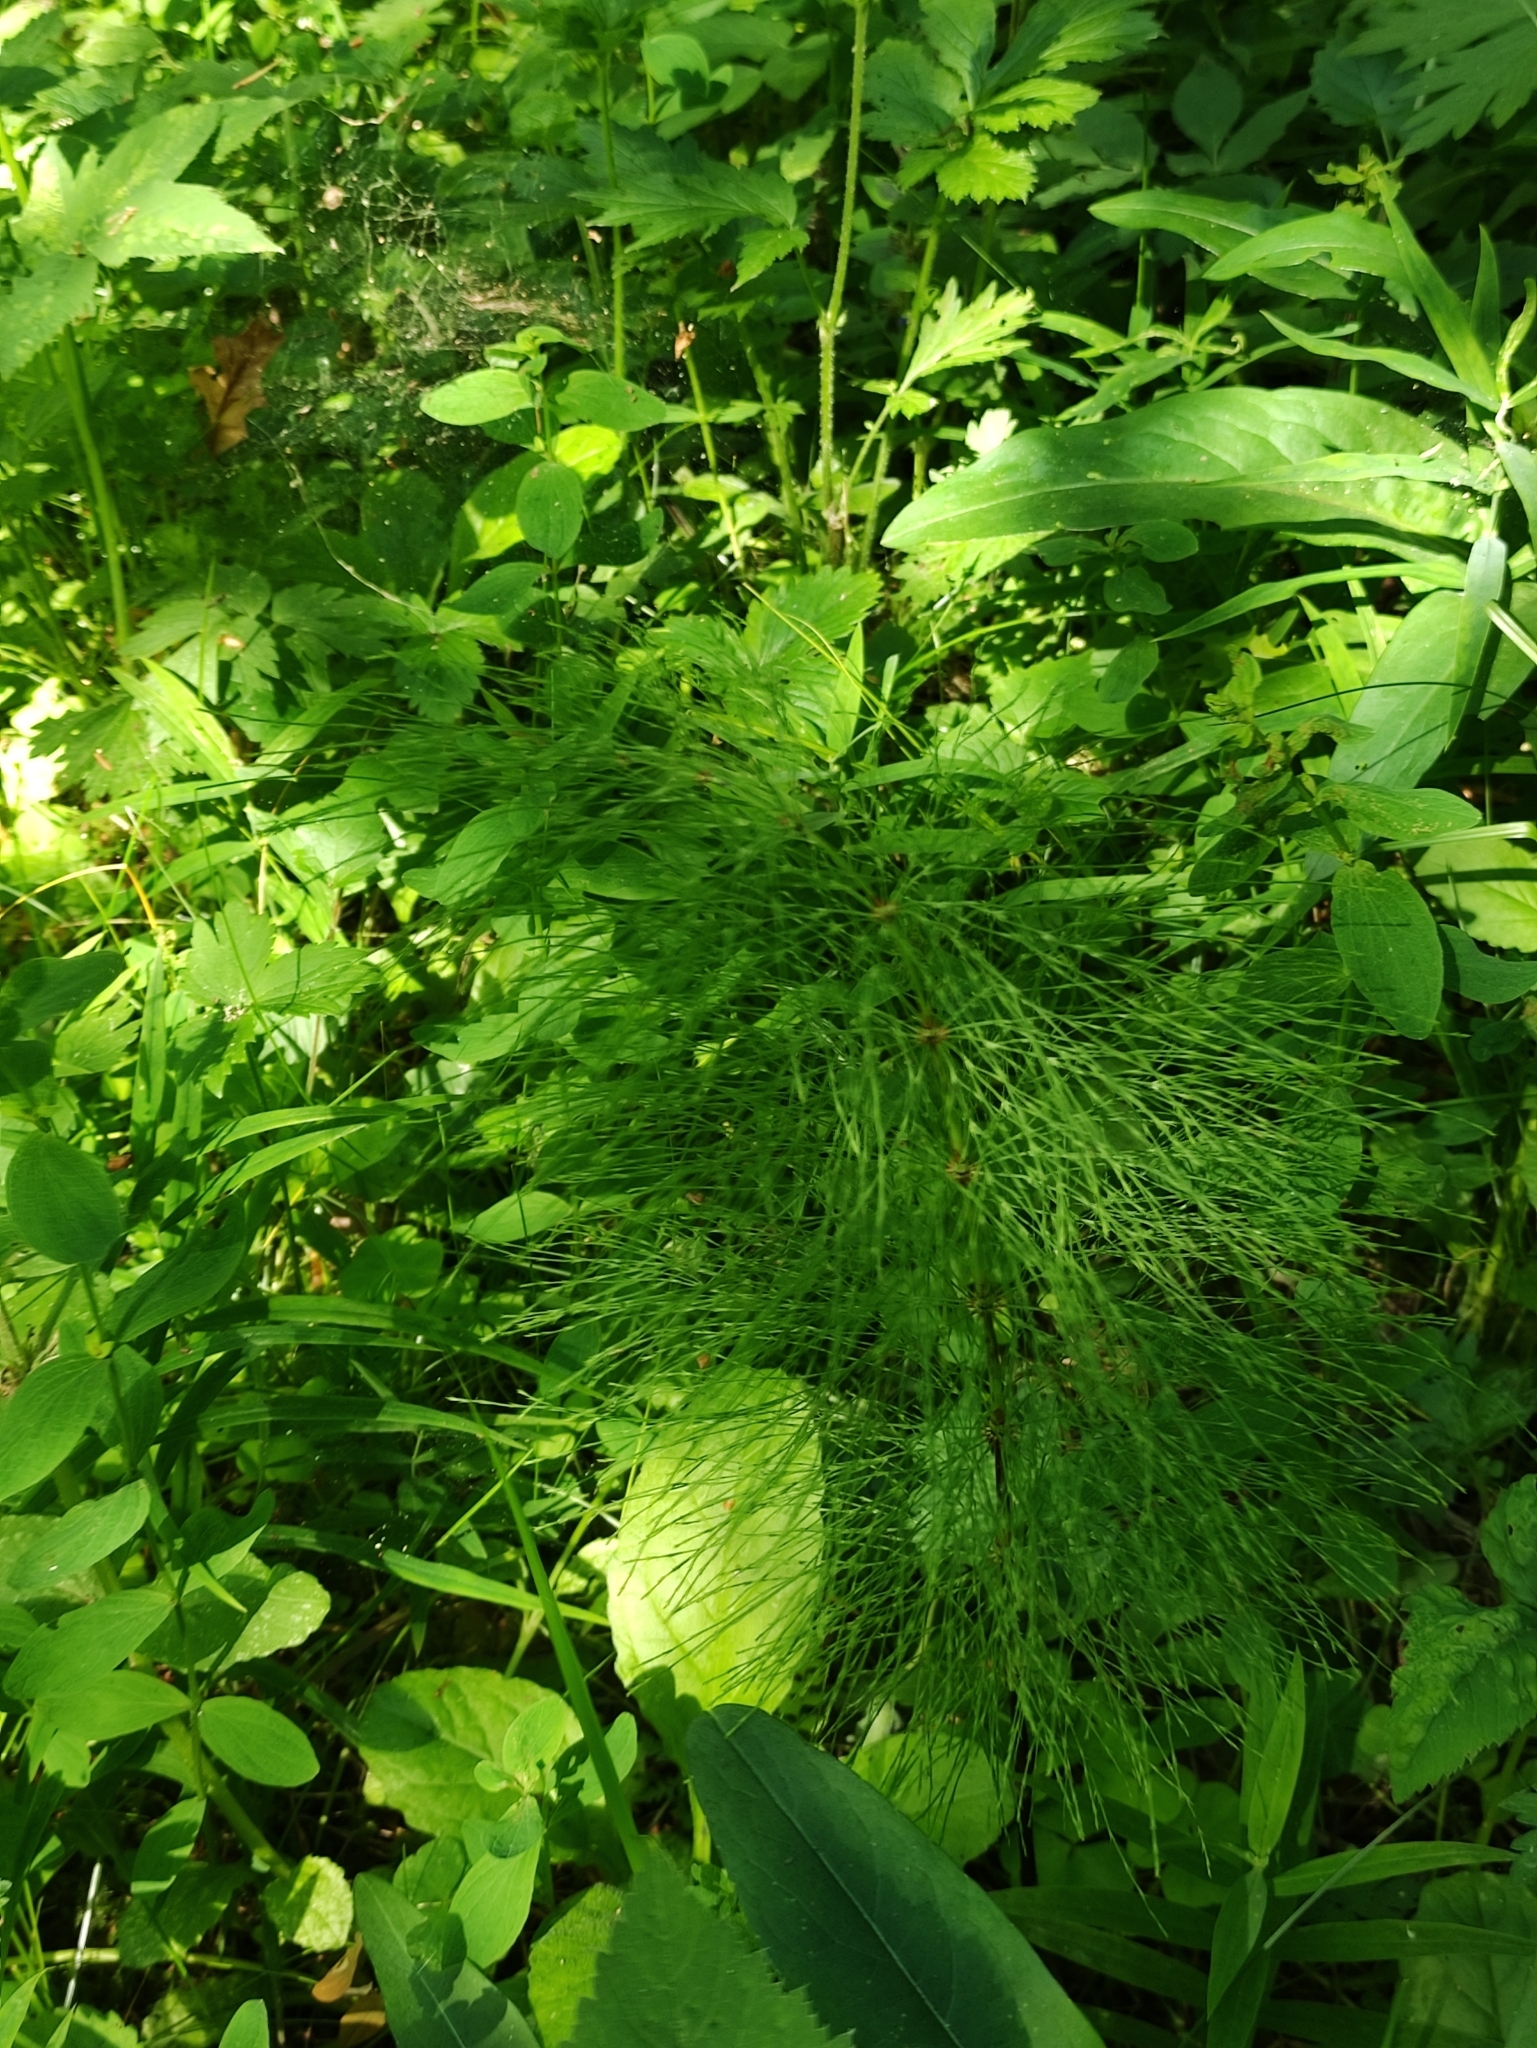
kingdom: Plantae
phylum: Tracheophyta
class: Polypodiopsida
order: Equisetales
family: Equisetaceae
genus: Equisetum
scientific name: Equisetum sylvaticum
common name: Wood horsetail
